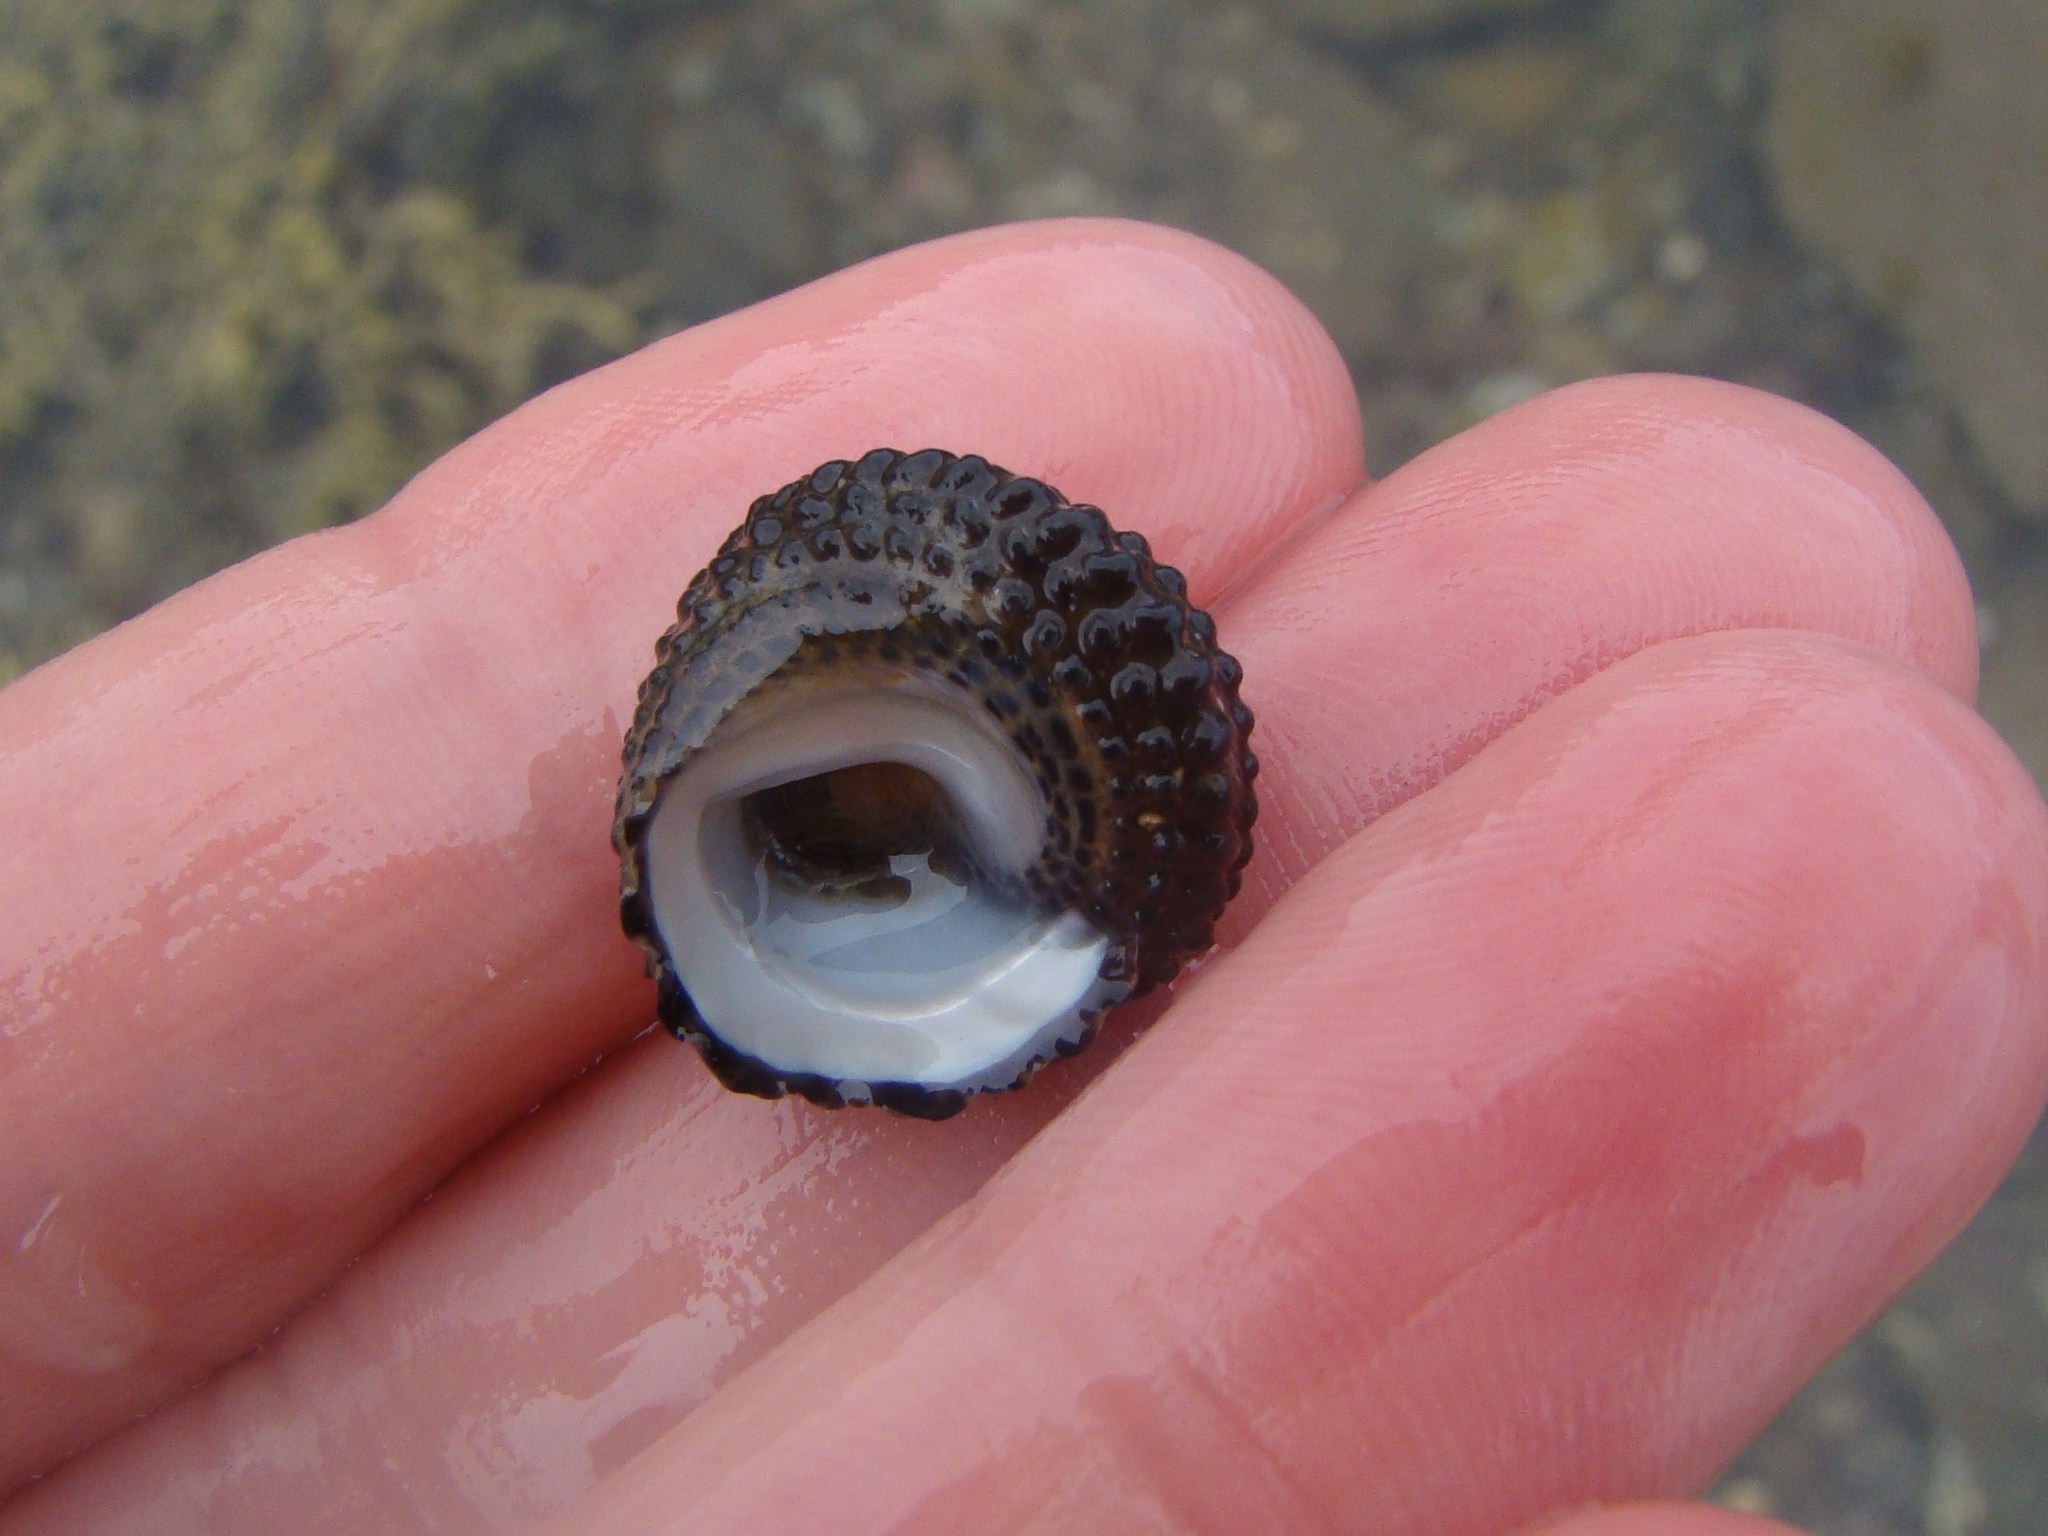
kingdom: Animalia
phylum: Mollusca
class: Gastropoda
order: Trochida
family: Trochidae
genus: Diloma
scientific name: Diloma bicanaliculatum
